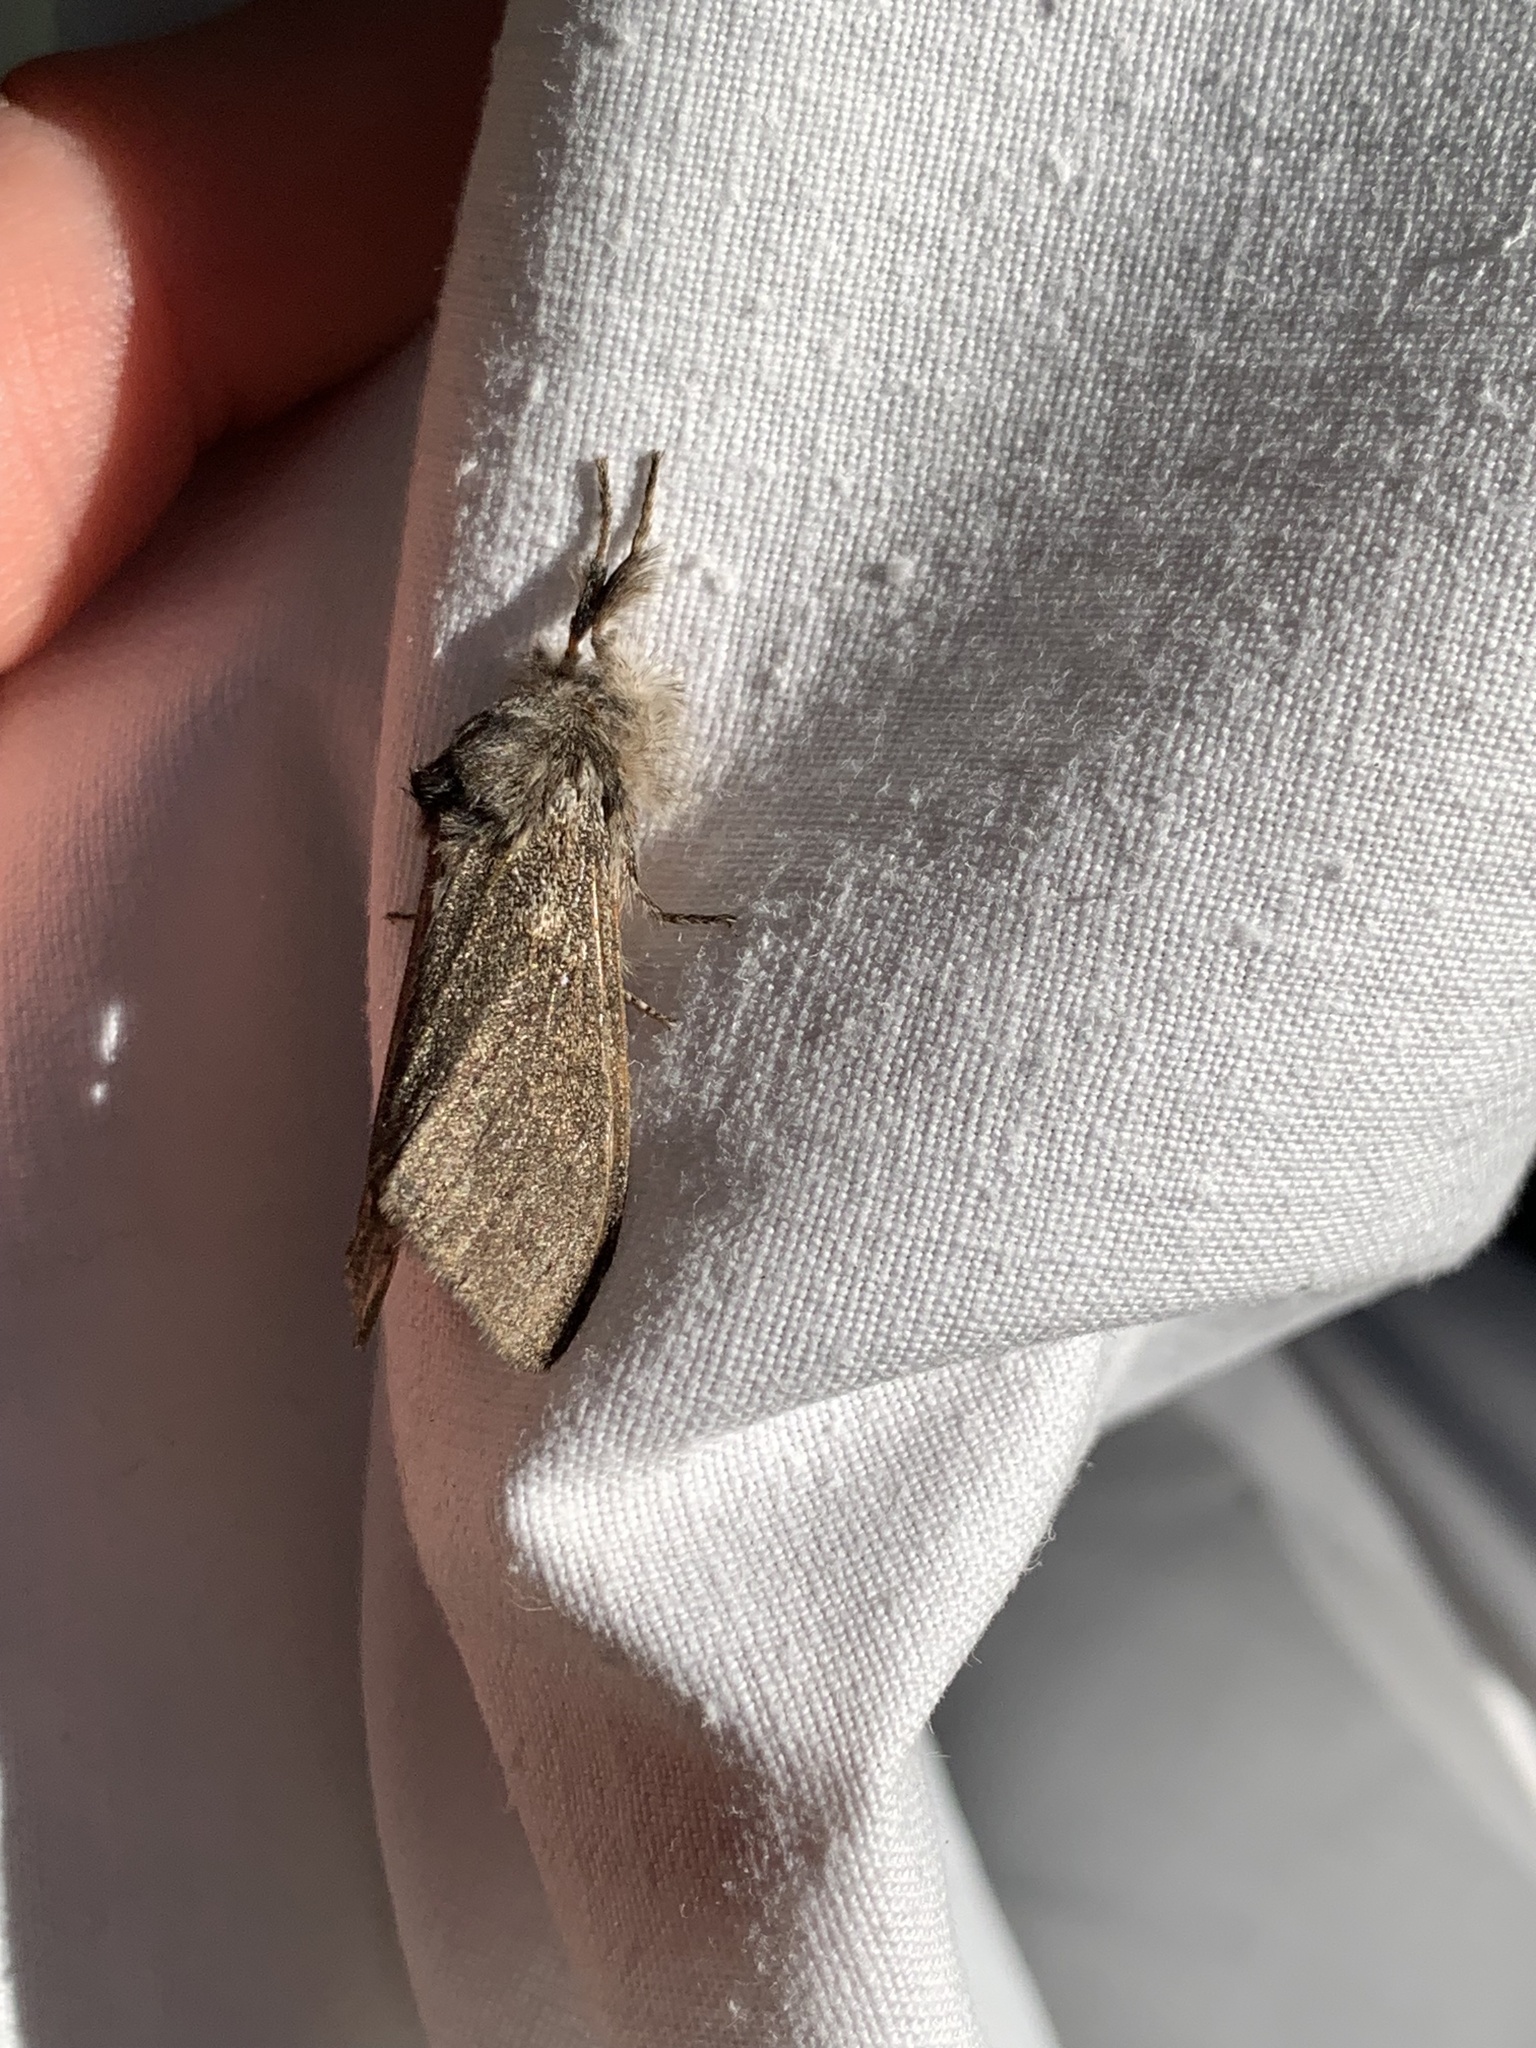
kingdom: Animalia
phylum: Arthropoda
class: Insecta
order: Lepidoptera
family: Erebidae
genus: Calliteara
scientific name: Calliteara pudibunda
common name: Pale tussock
